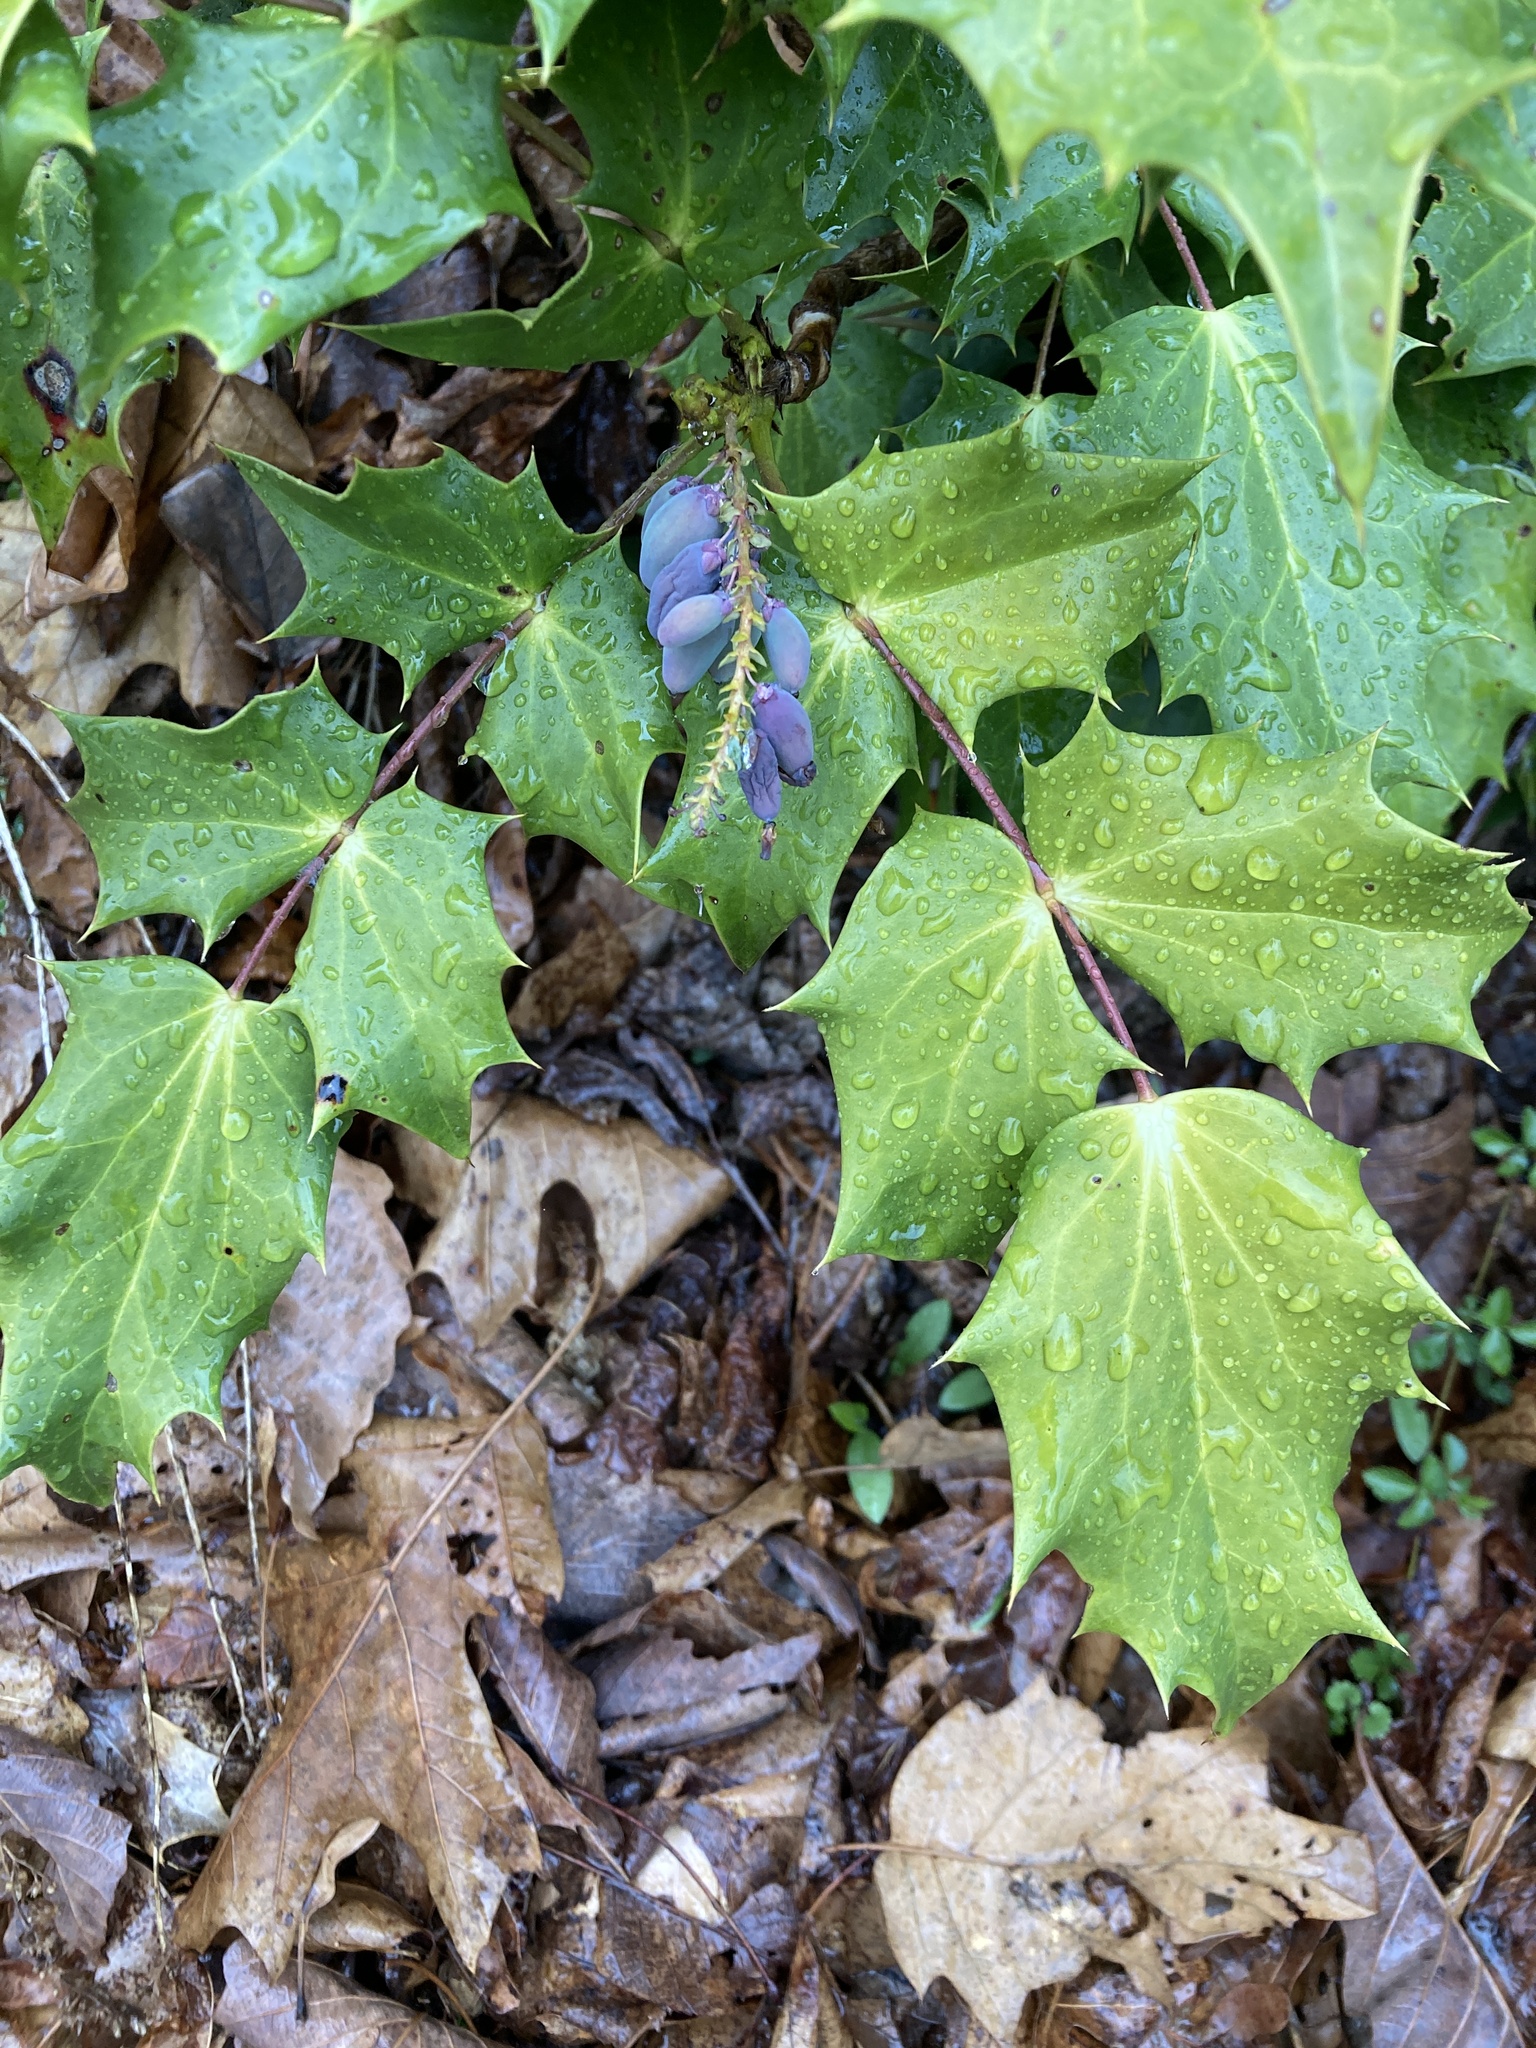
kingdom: Plantae
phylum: Tracheophyta
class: Magnoliopsida
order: Ranunculales
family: Berberidaceae
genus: Mahonia
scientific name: Mahonia bealei
